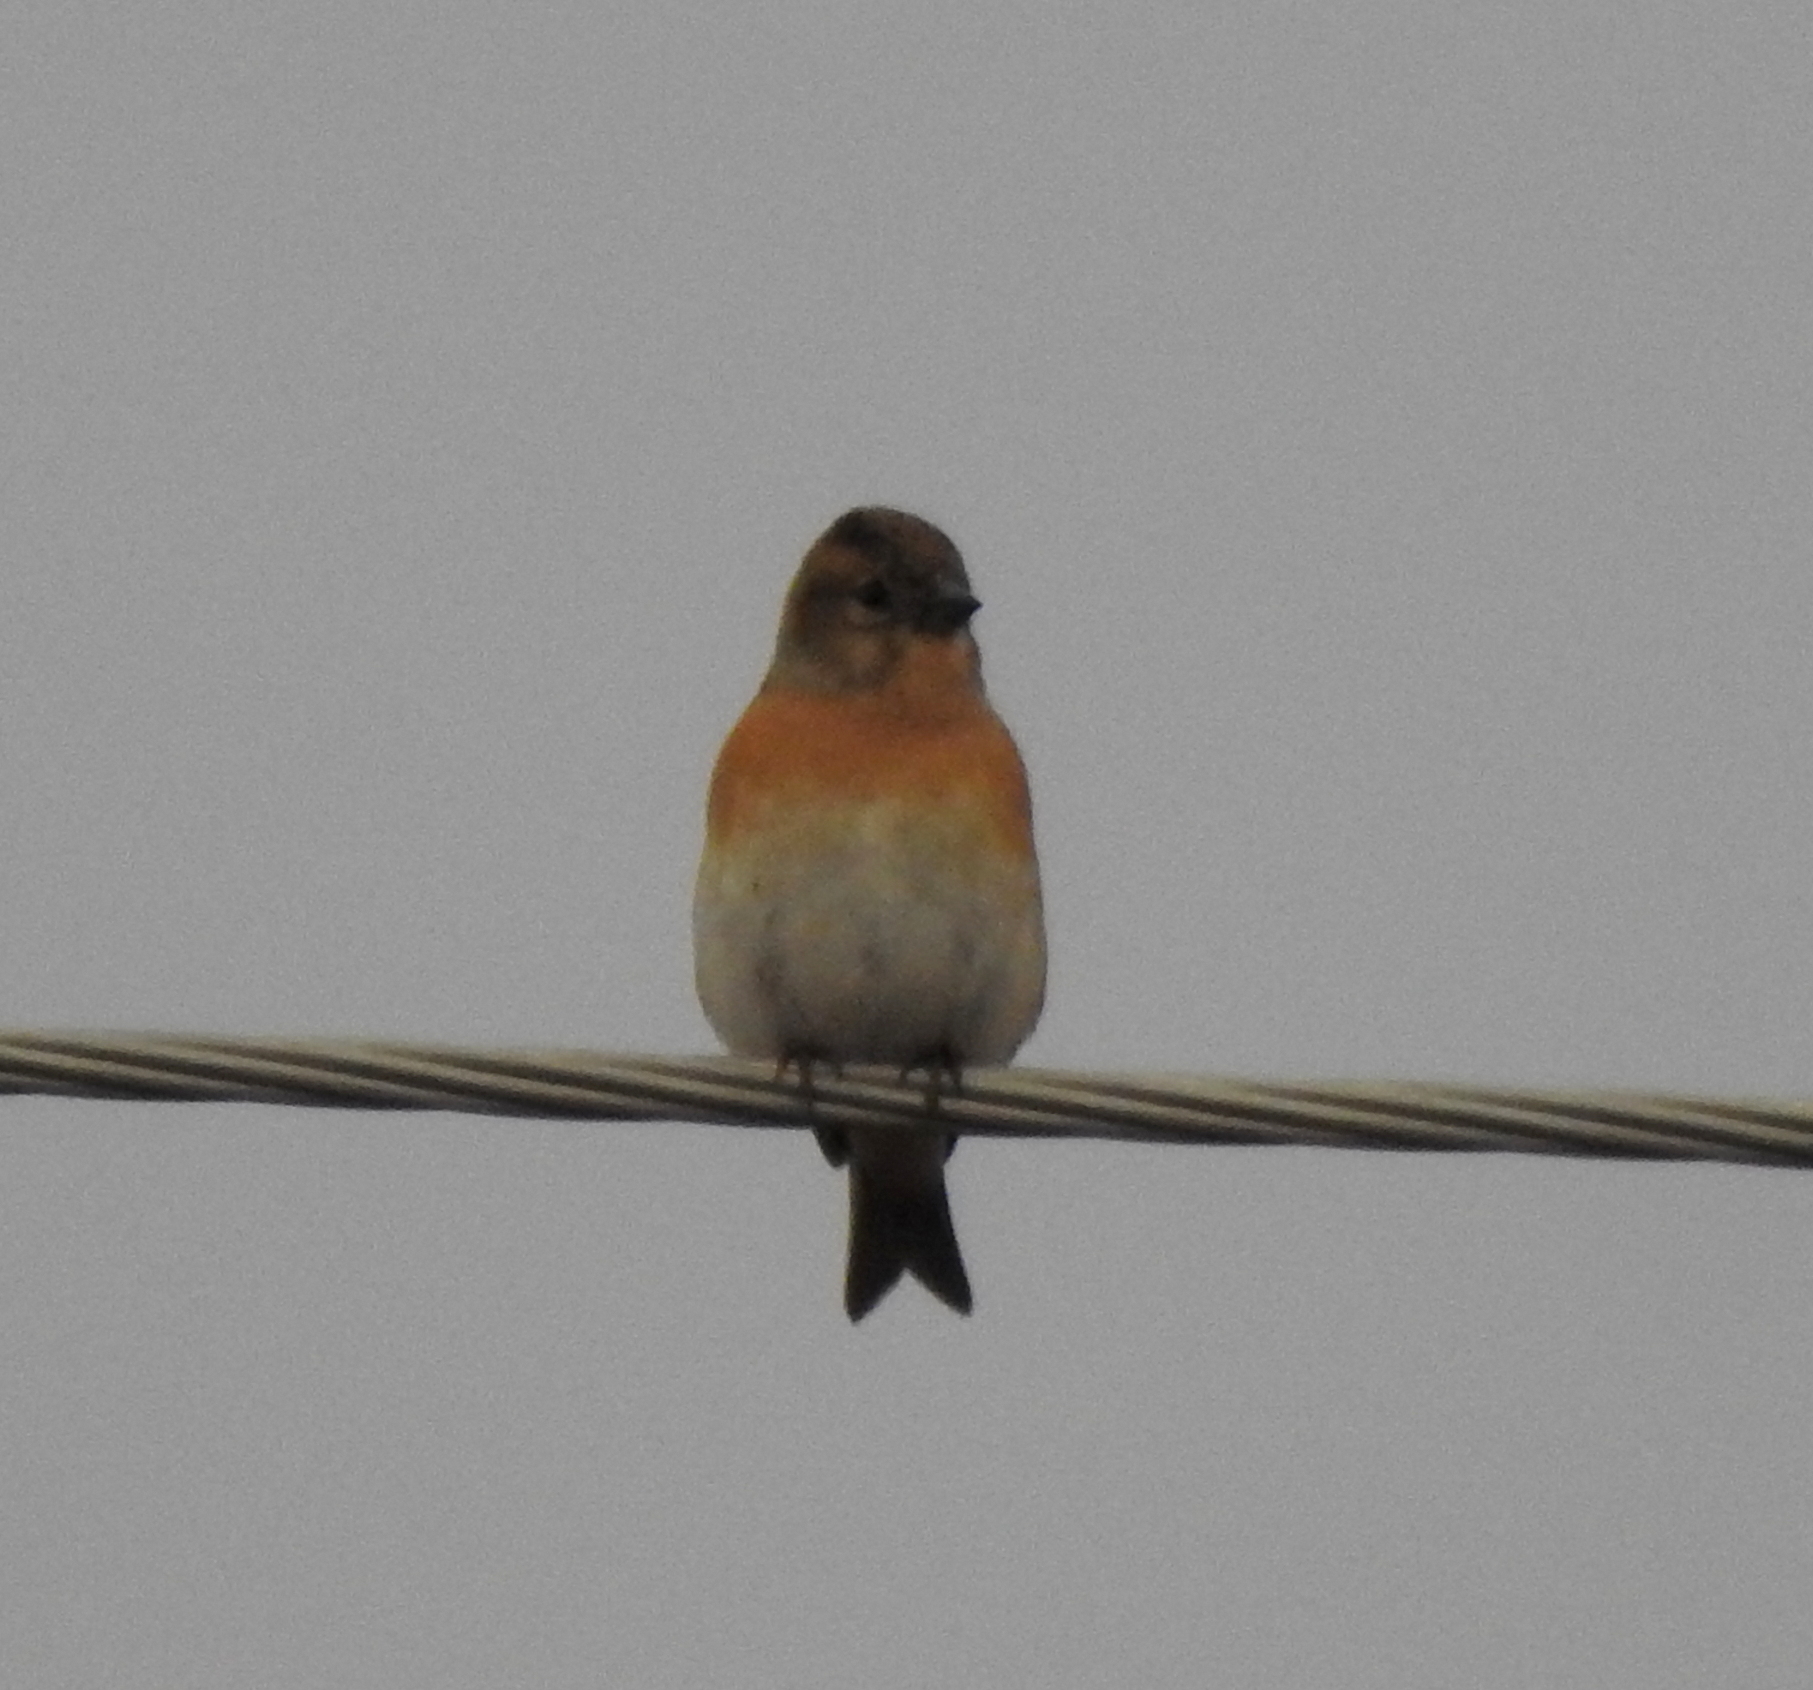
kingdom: Animalia
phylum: Chordata
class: Aves
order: Passeriformes
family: Fringillidae
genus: Fringilla
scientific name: Fringilla montifringilla
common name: Brambling
